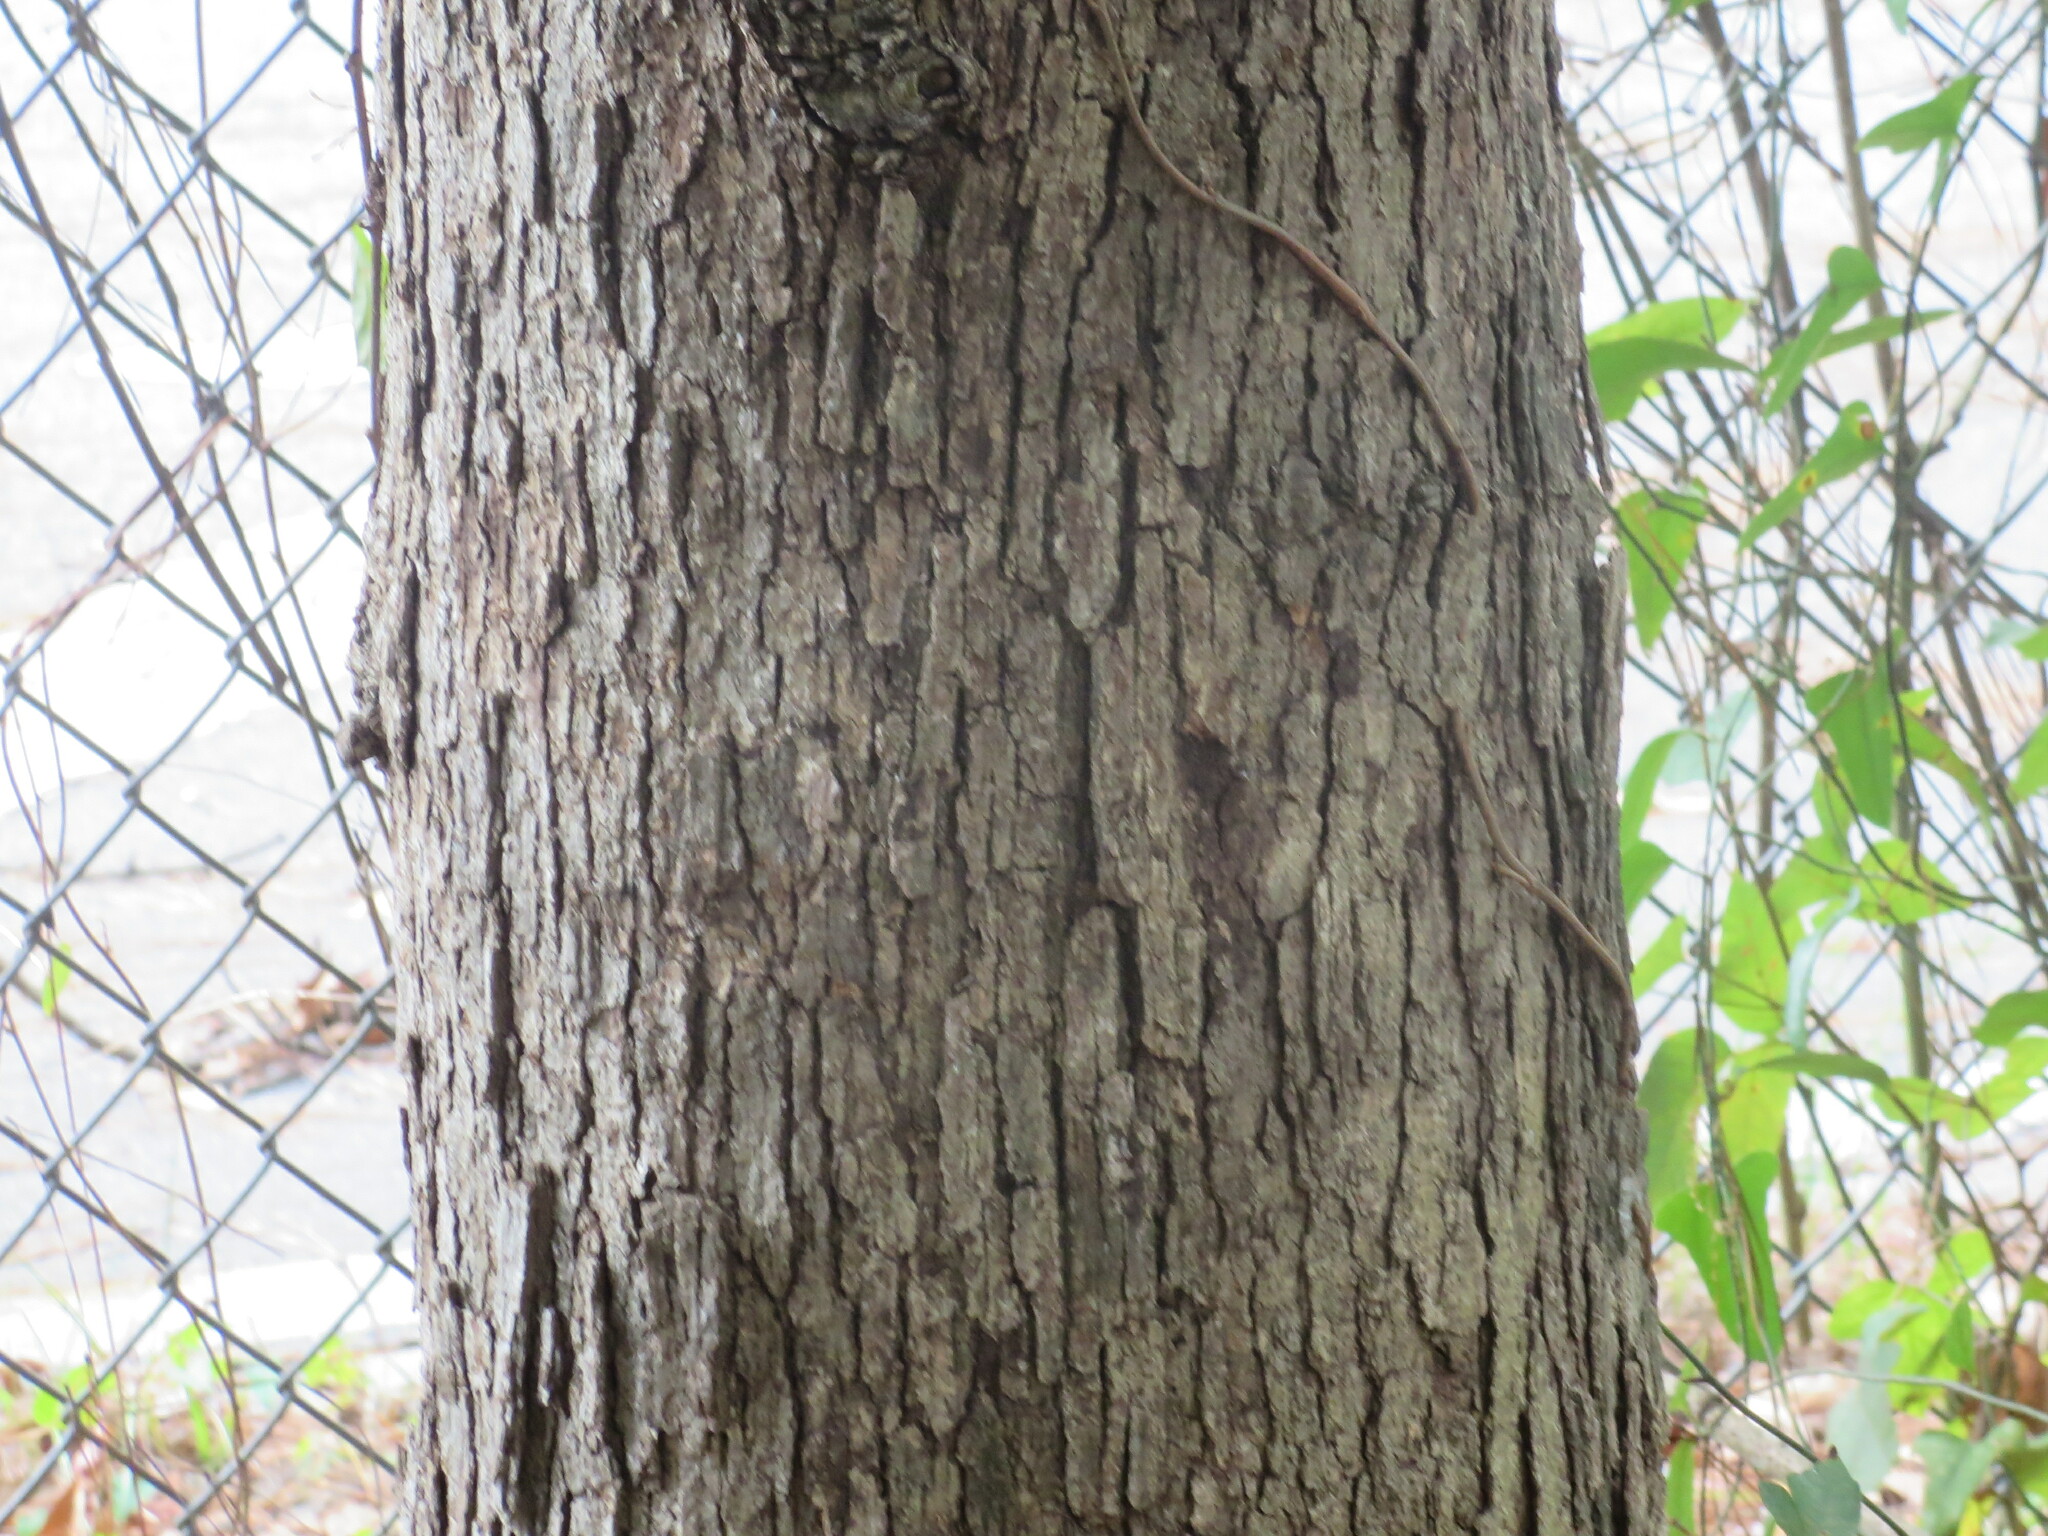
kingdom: Plantae
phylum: Tracheophyta
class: Magnoliopsida
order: Fagales
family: Fagaceae
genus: Quercus
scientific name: Quercus alba
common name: White oak
